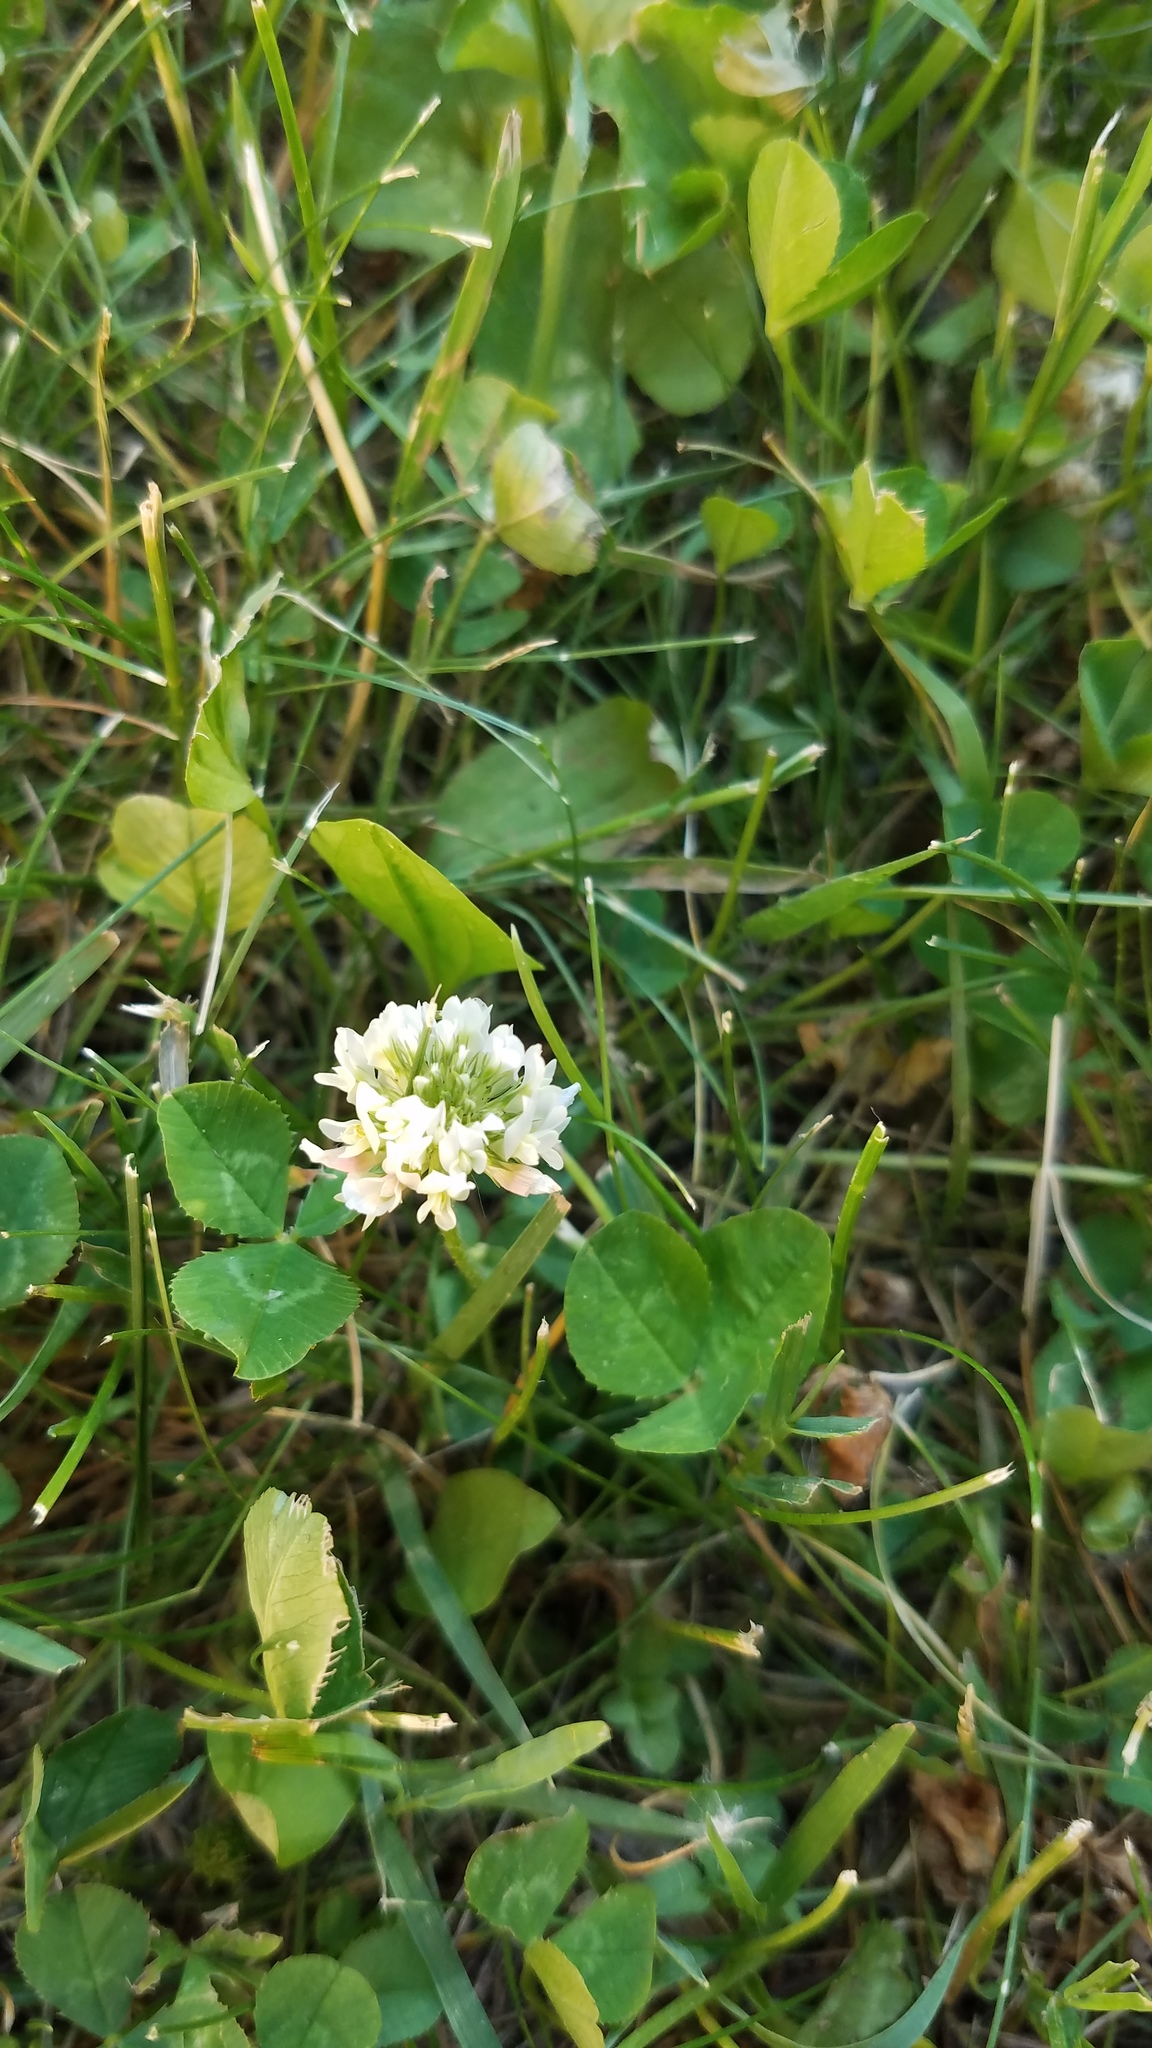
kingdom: Plantae
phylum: Tracheophyta
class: Magnoliopsida
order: Fabales
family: Fabaceae
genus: Trifolium
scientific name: Trifolium repens
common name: White clover
